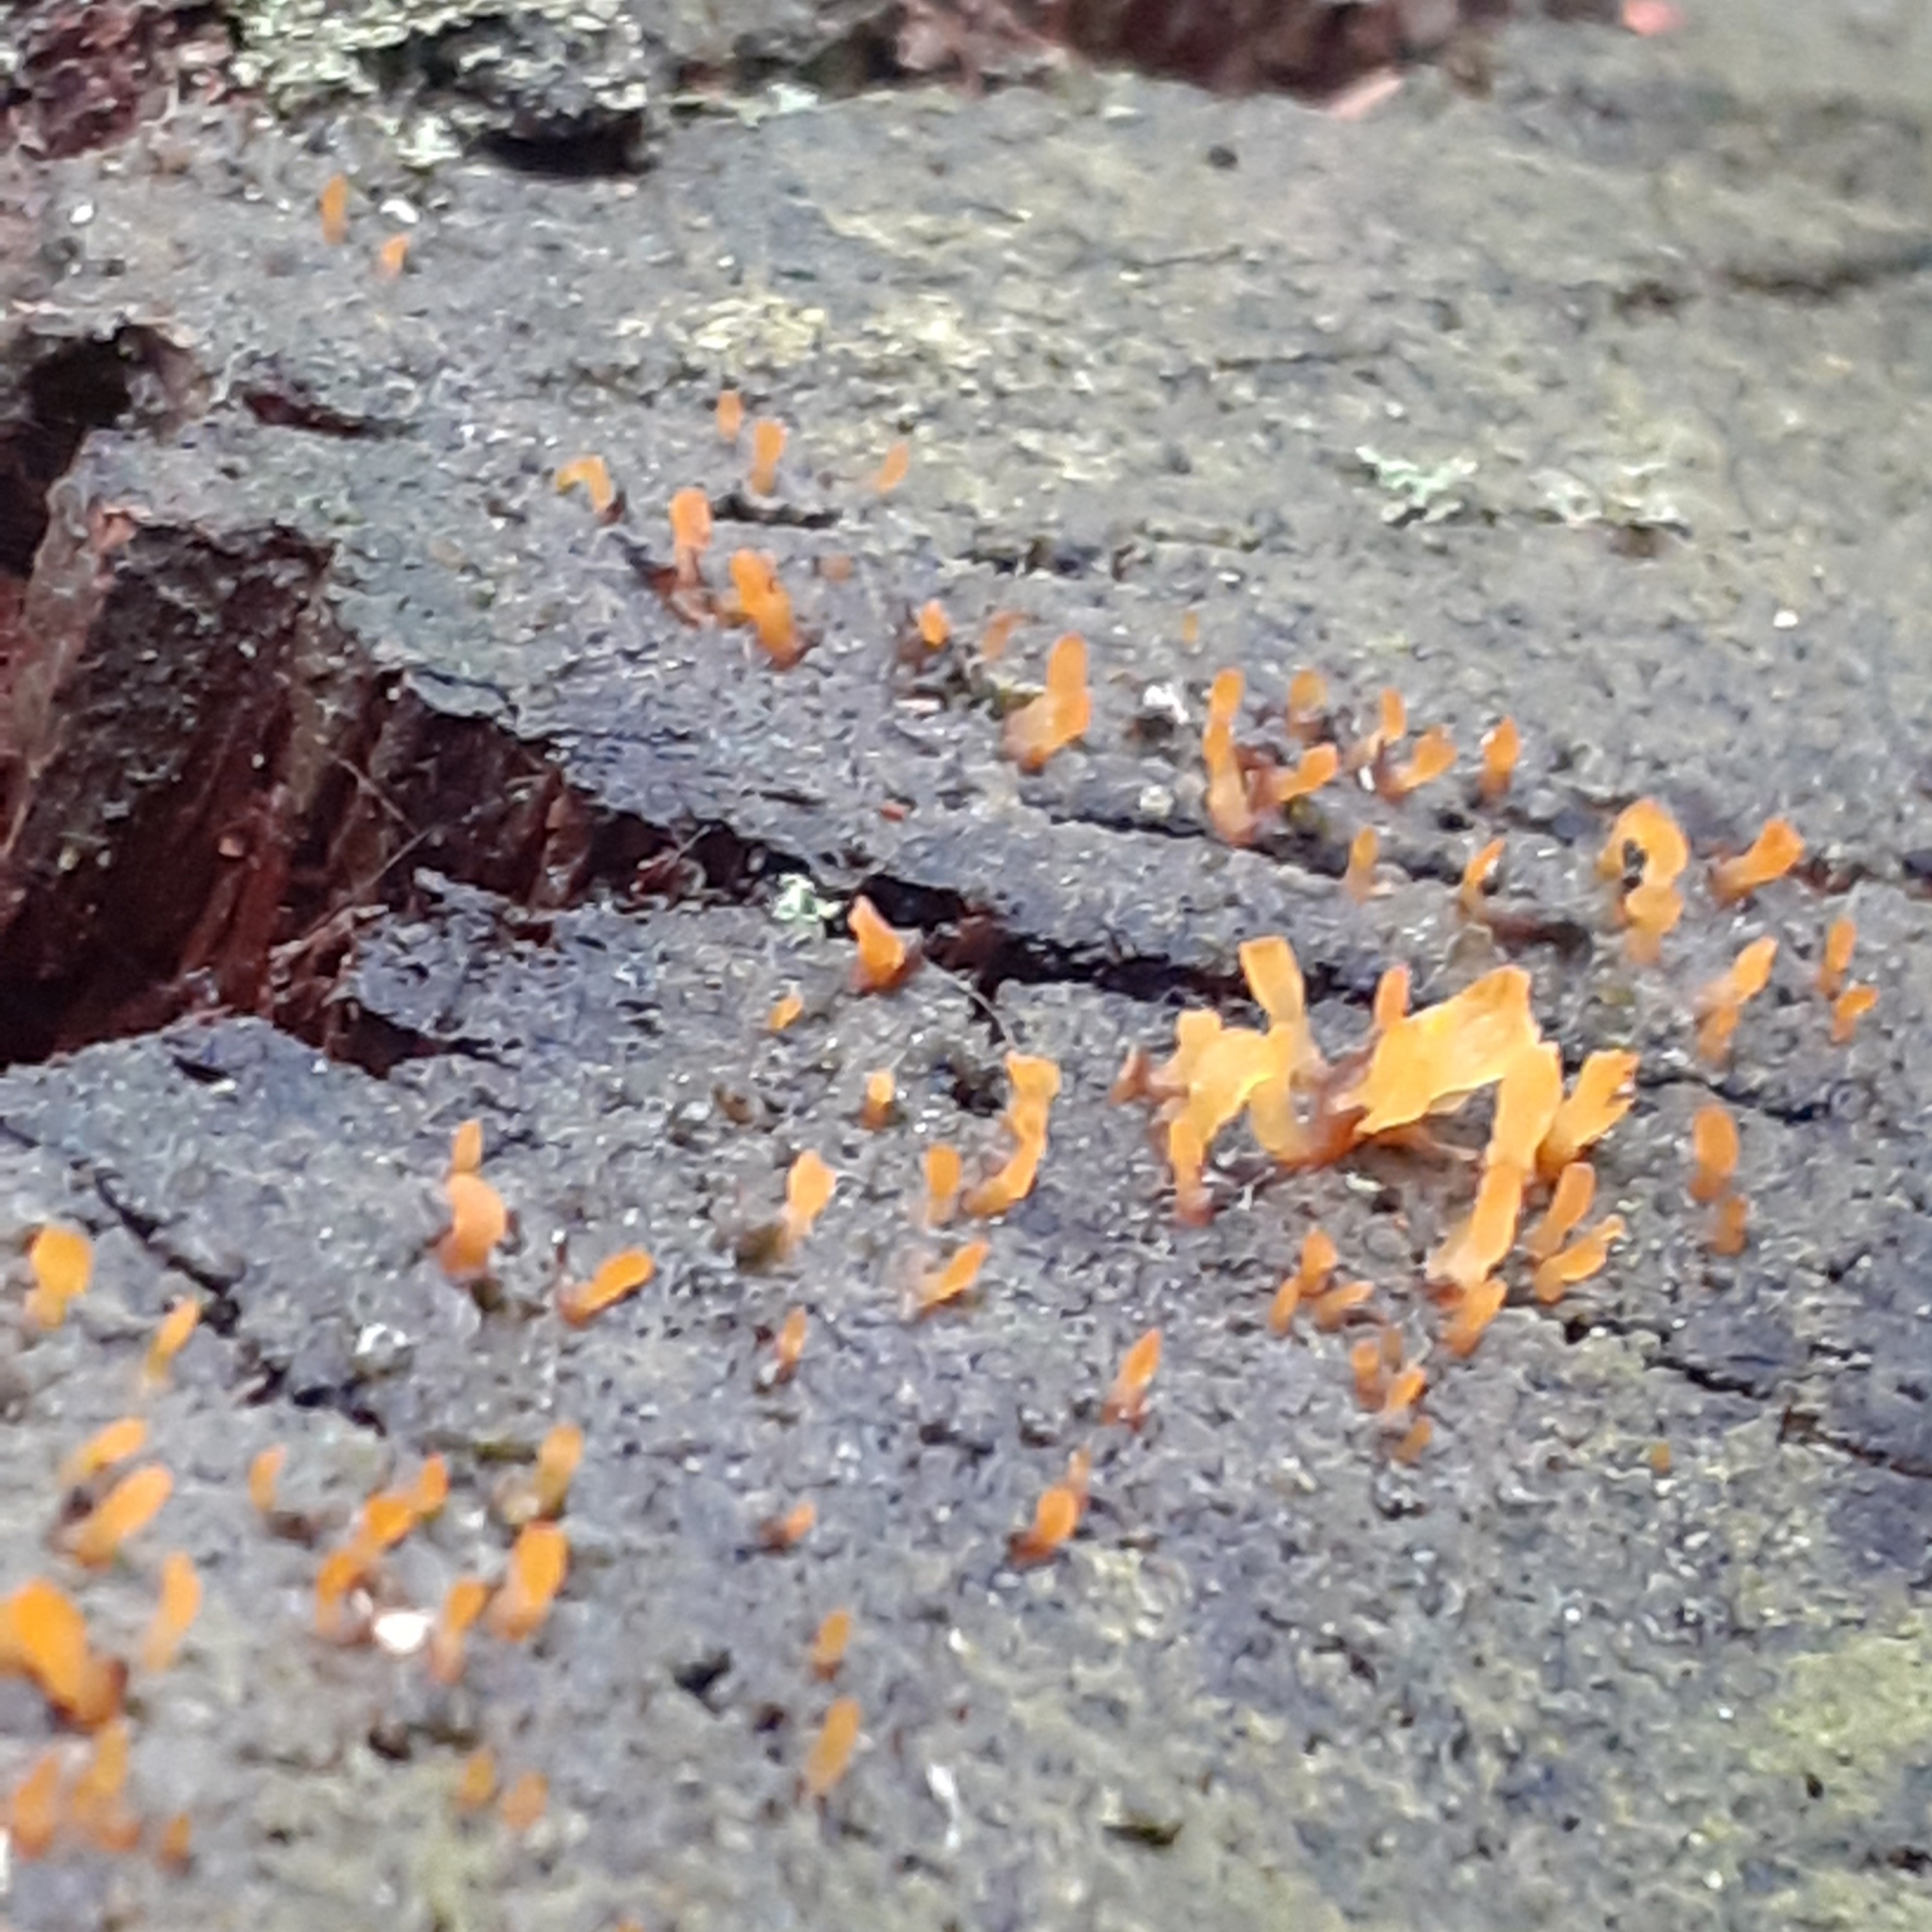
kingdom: Fungi
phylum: Basidiomycota
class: Dacrymycetes
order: Dacrymycetales
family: Dacrymycetaceae
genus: Calocera
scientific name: Calocera cornea
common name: Small stagshorn
